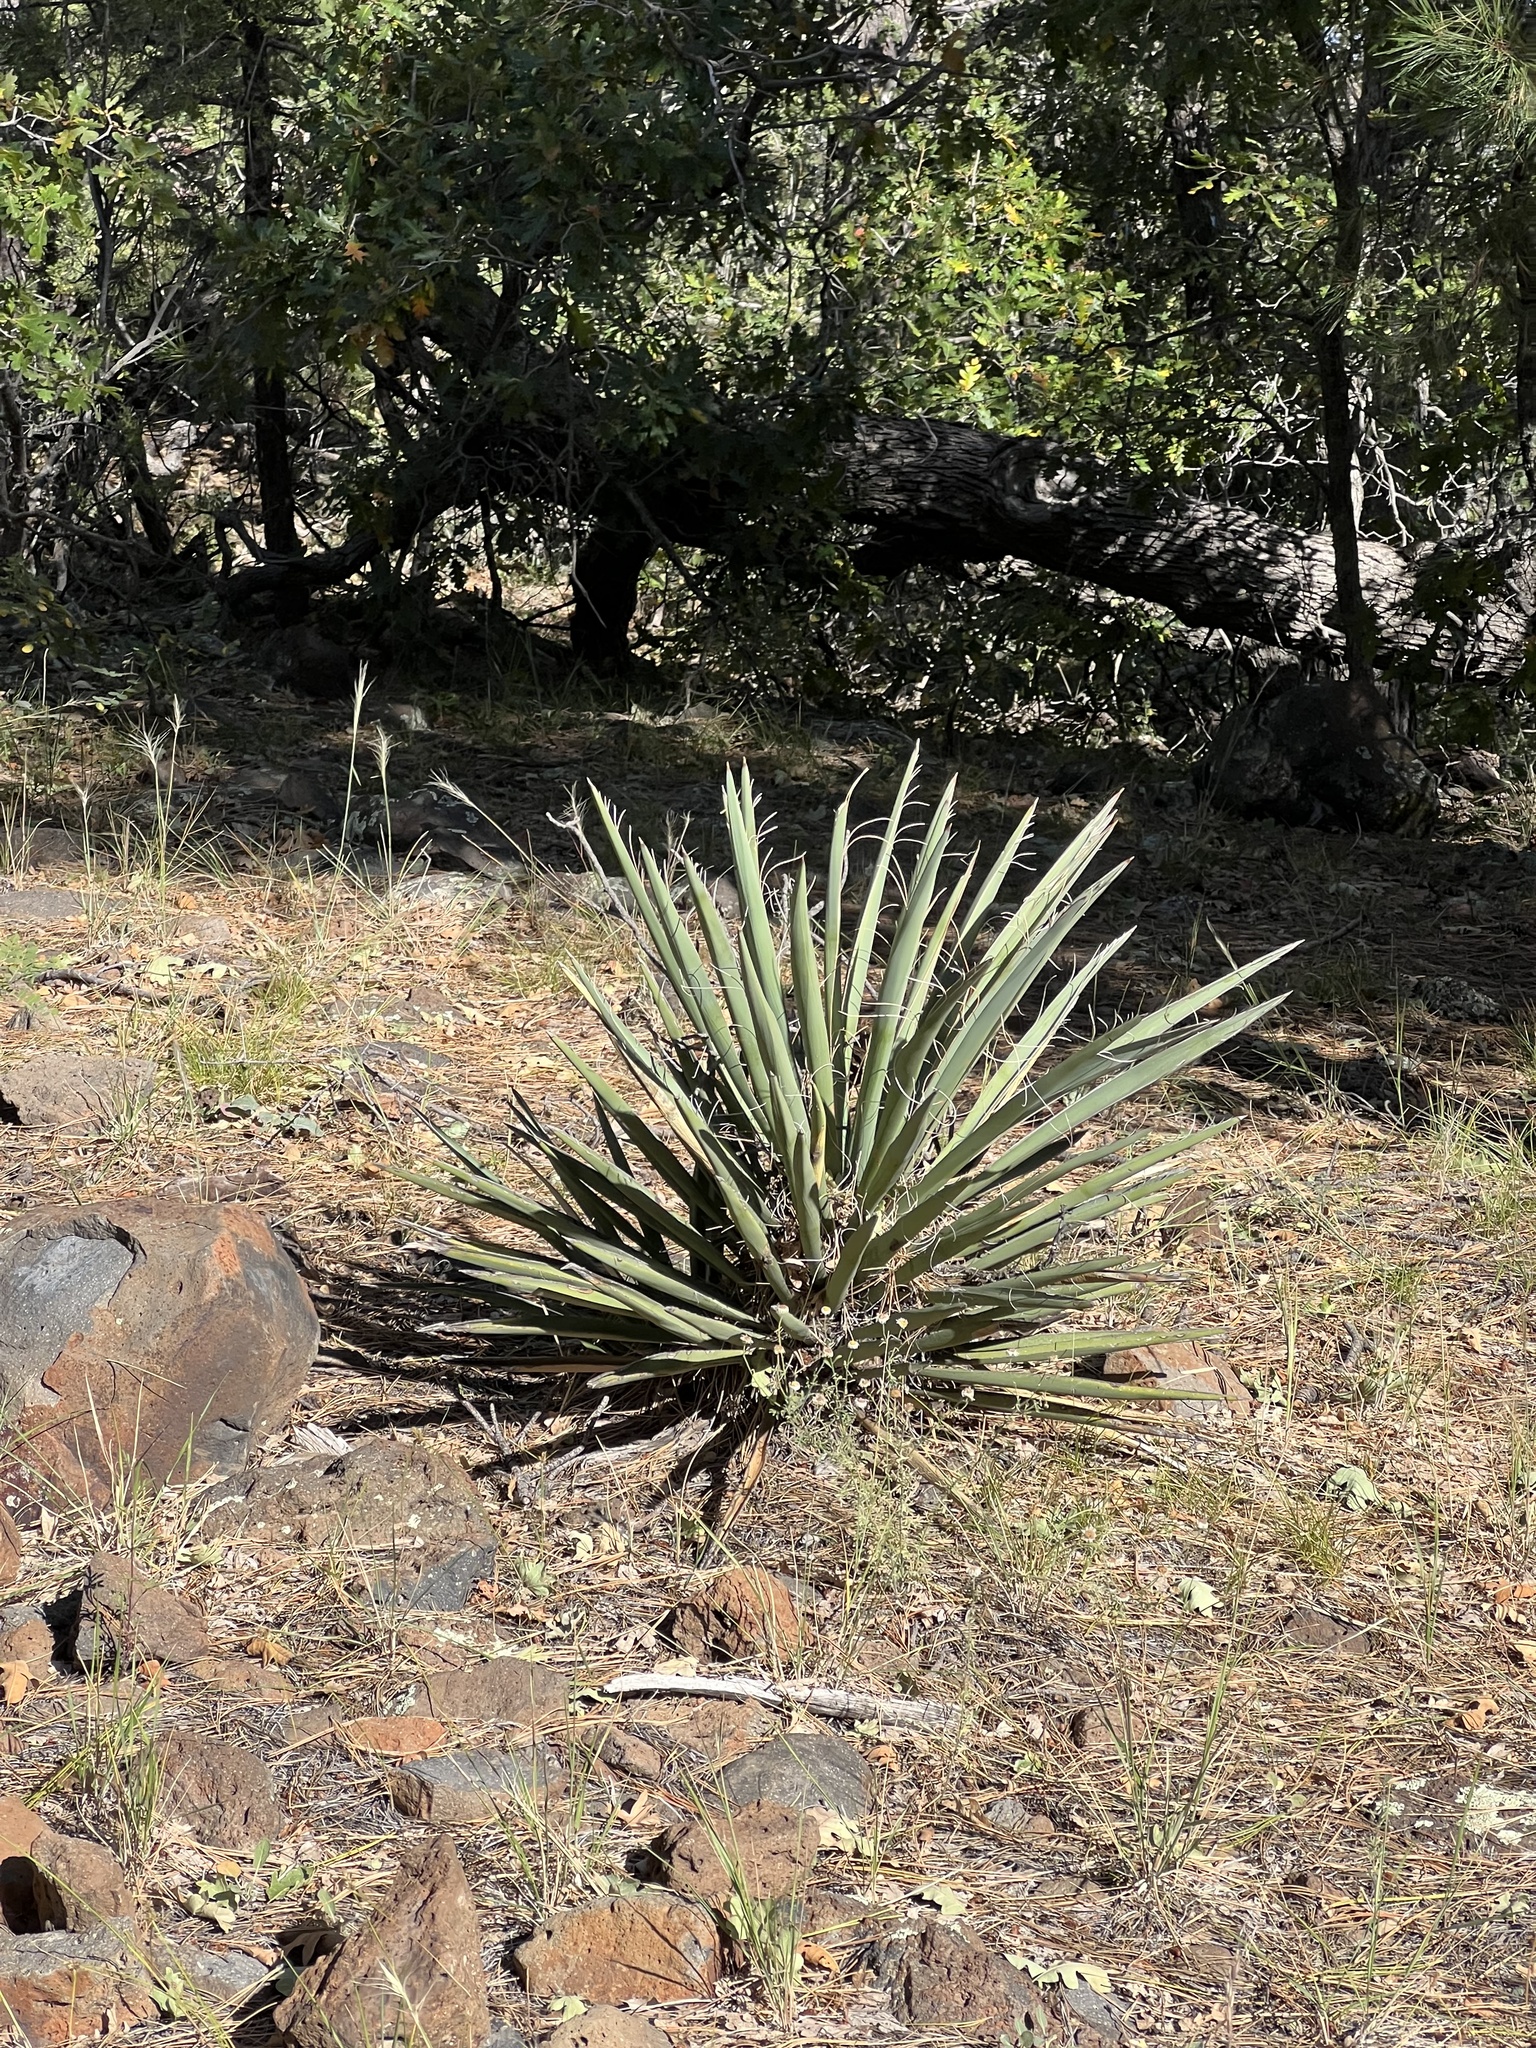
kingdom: Plantae
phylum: Tracheophyta
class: Liliopsida
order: Asparagales
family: Asparagaceae
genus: Yucca
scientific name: Yucca baccata
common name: Banana yucca
